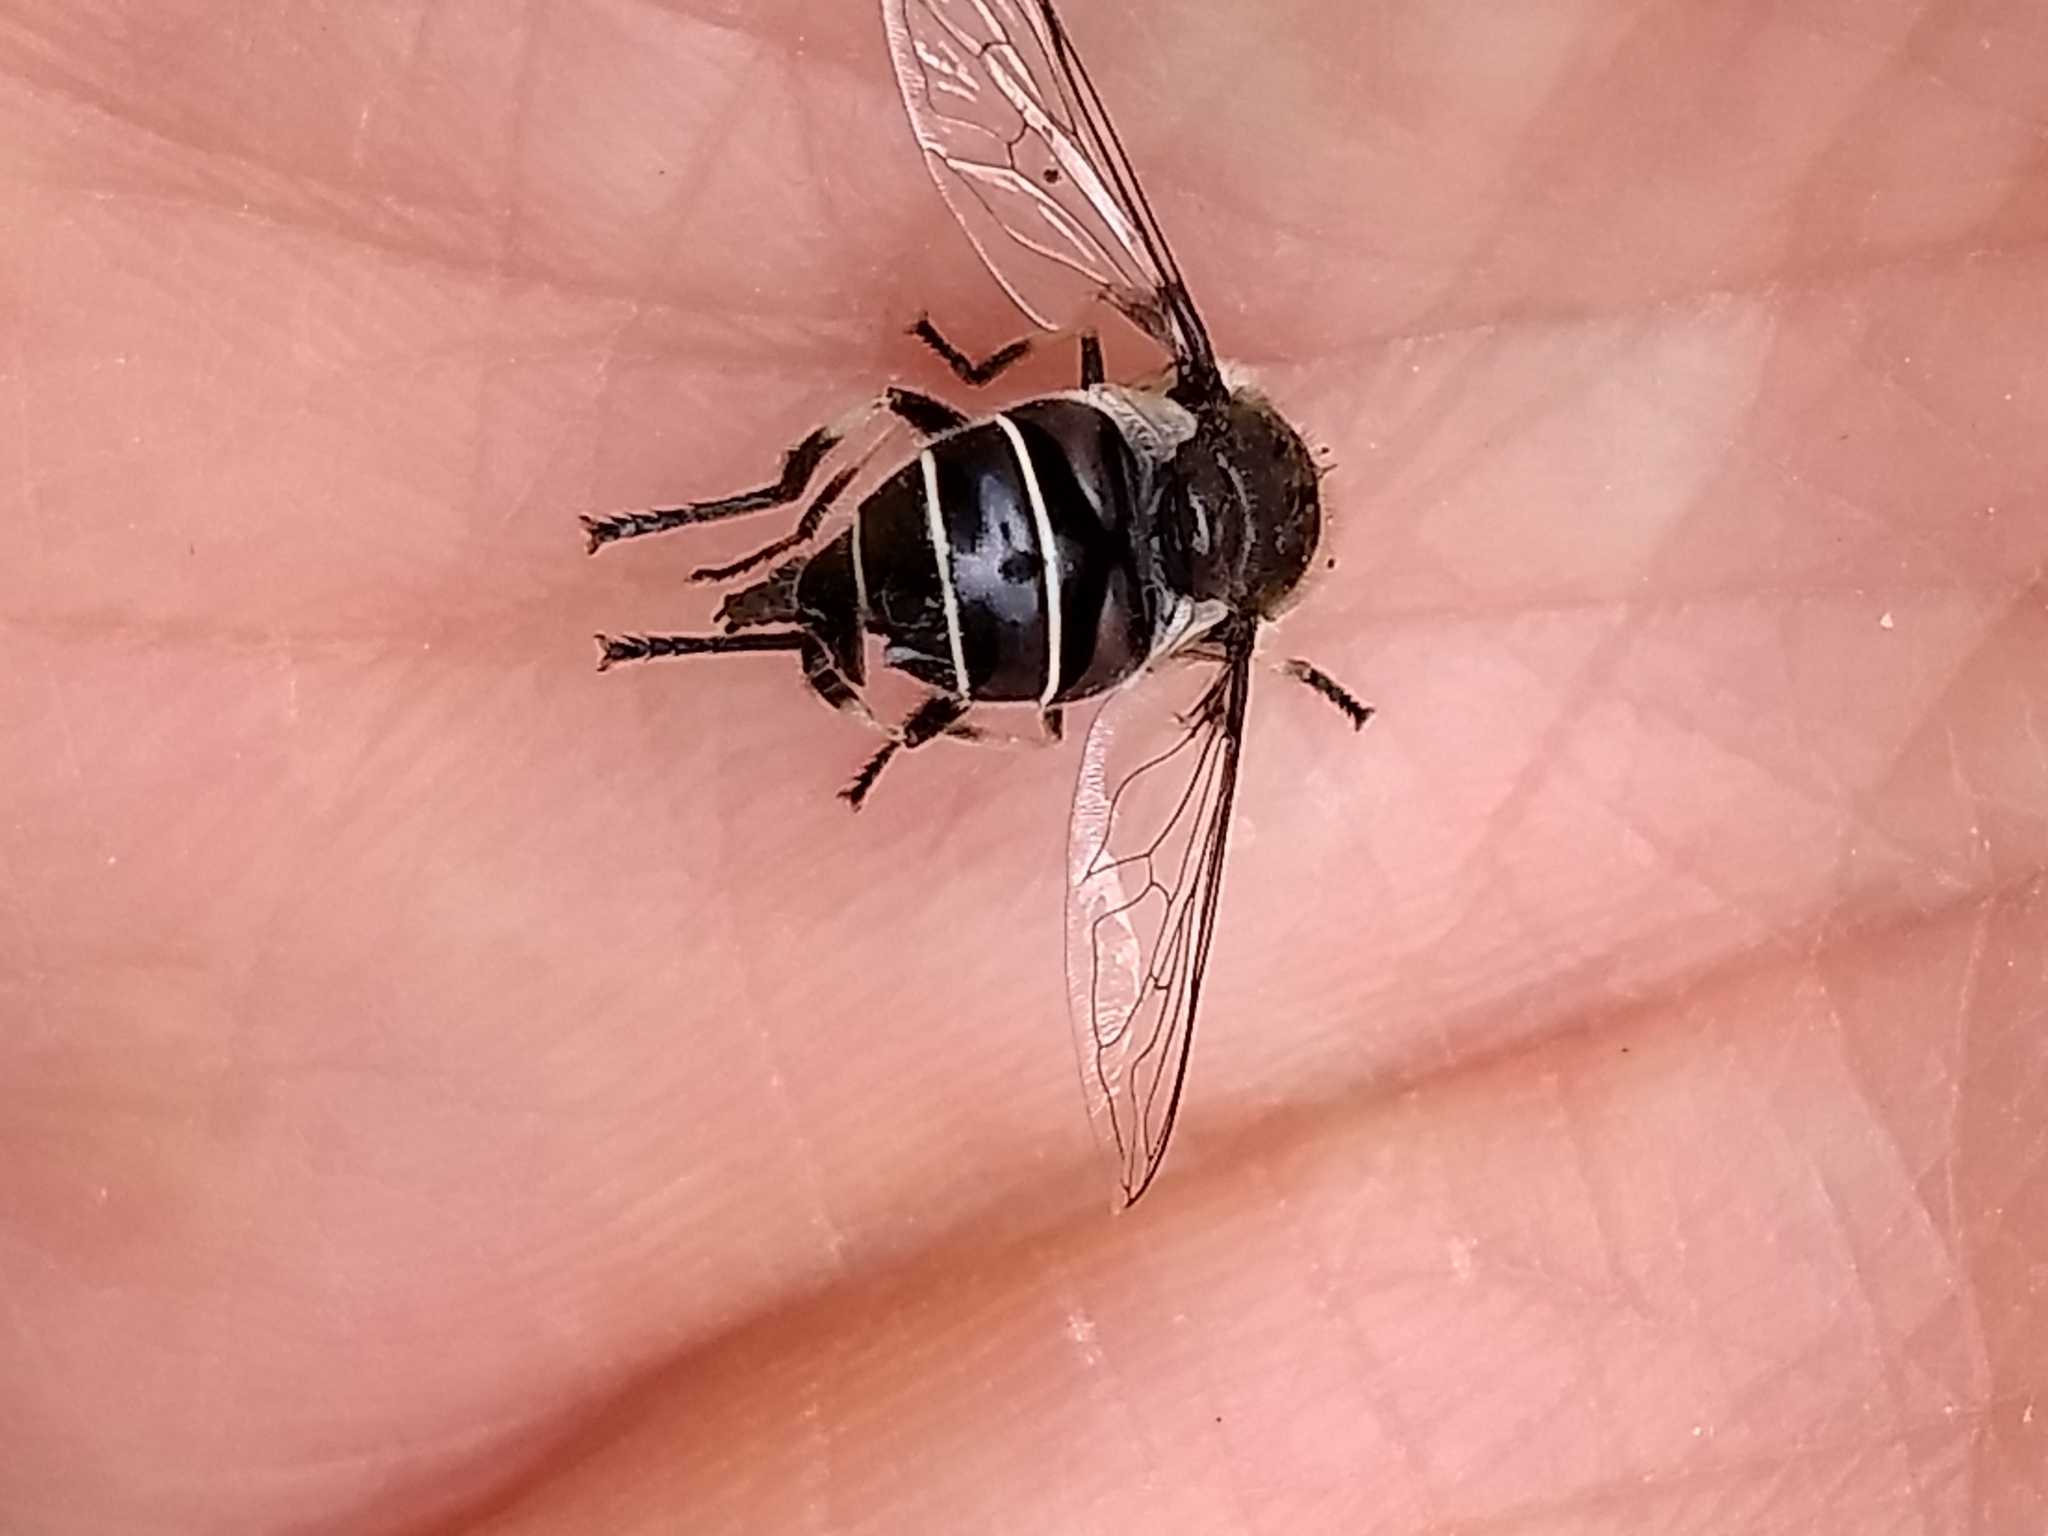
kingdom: Animalia
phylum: Arthropoda
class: Insecta
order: Diptera
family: Syrphidae
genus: Eristalis
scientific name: Eristalis dimidiata
